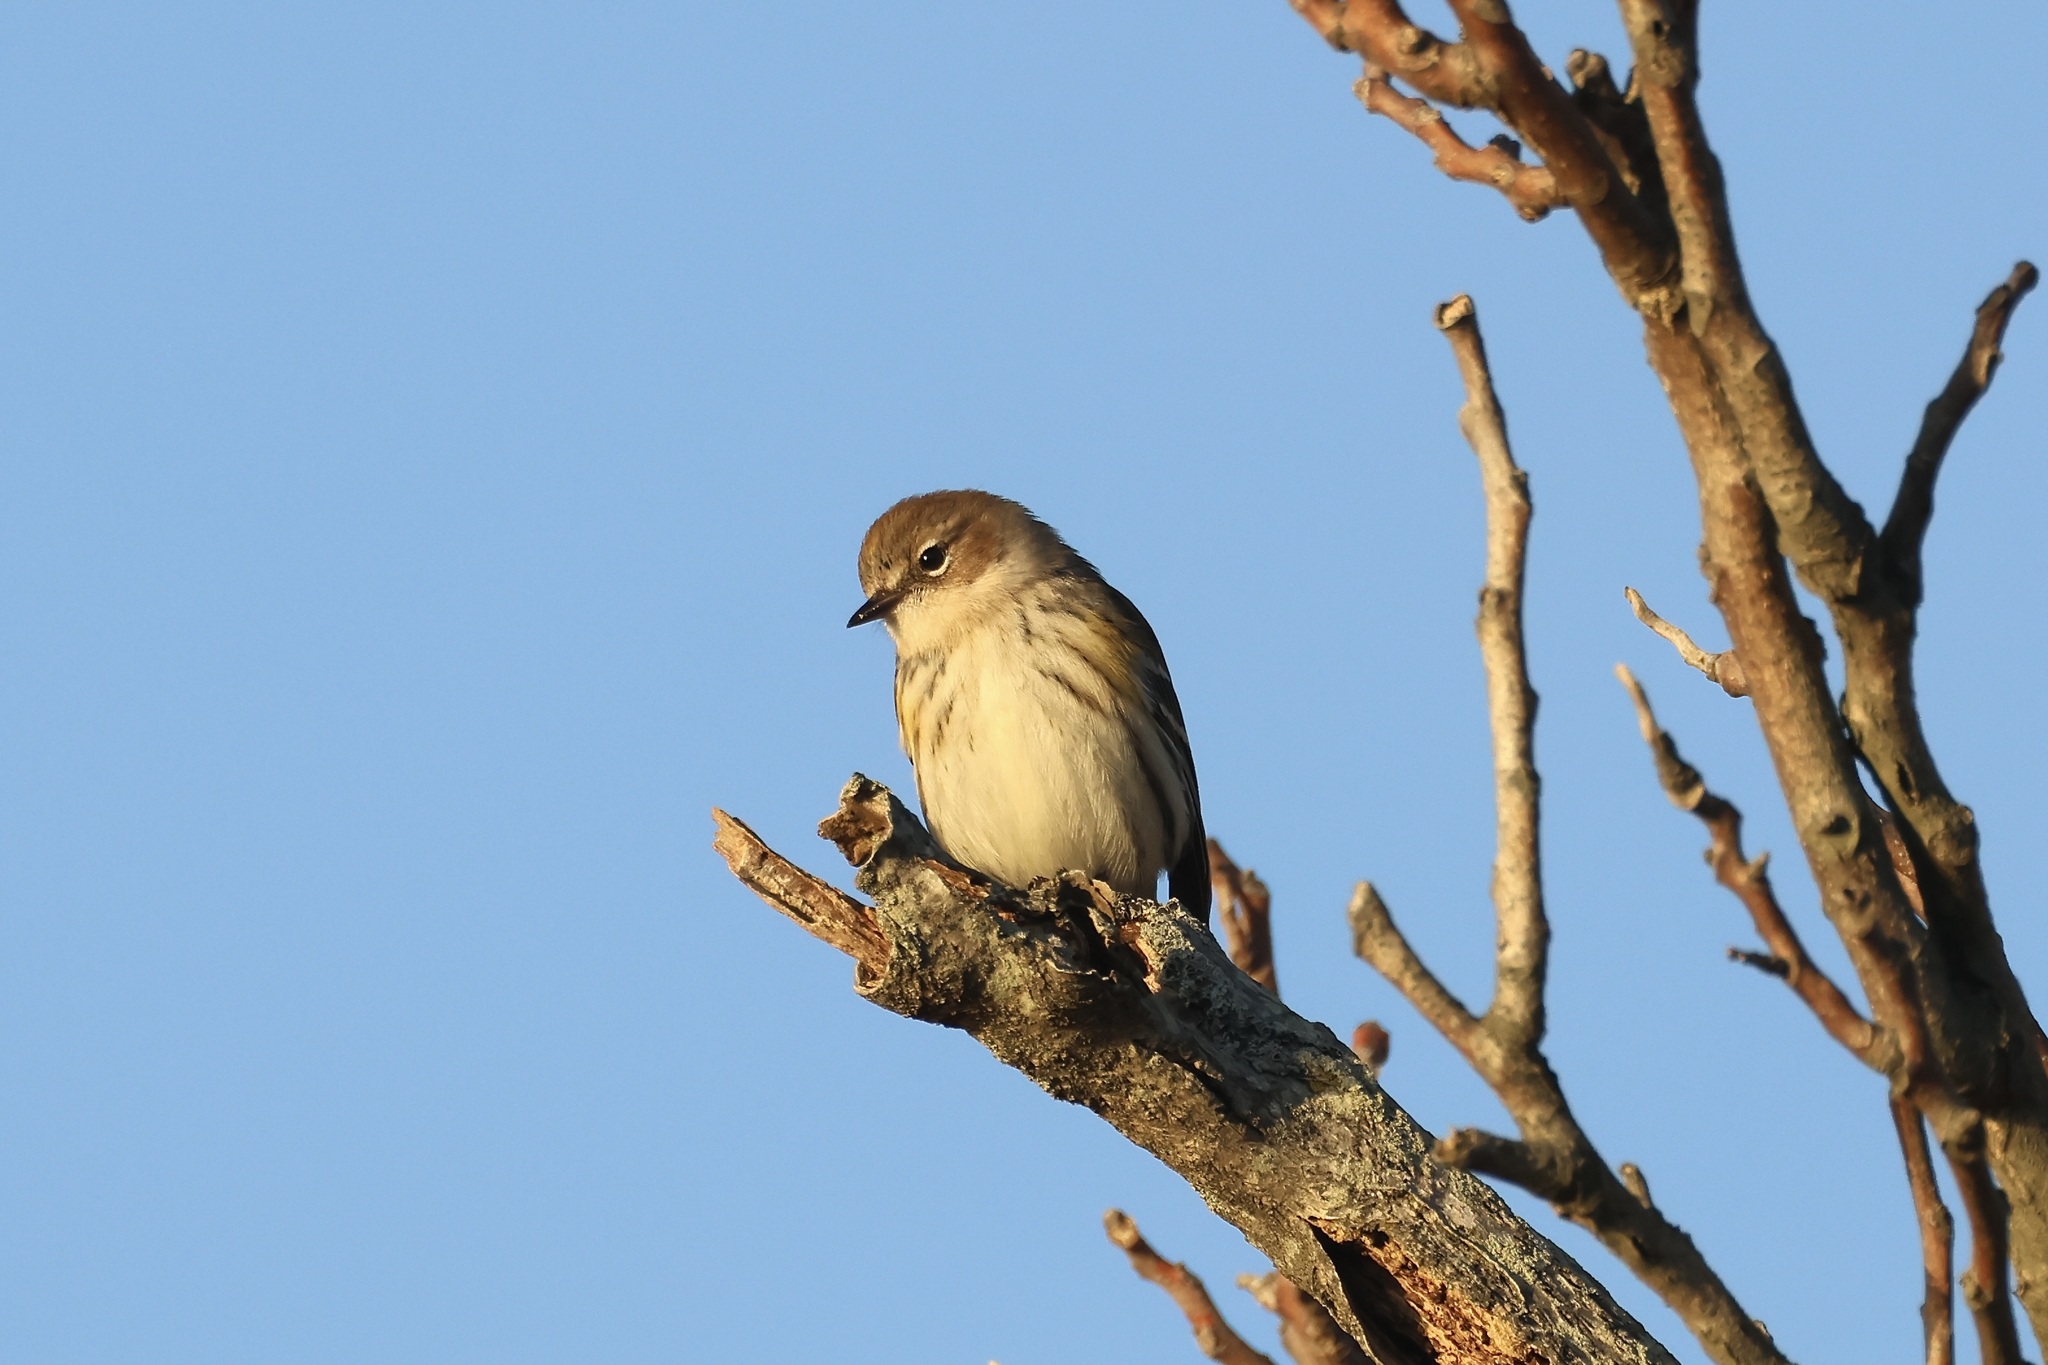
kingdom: Animalia
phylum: Chordata
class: Aves
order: Passeriformes
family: Parulidae
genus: Setophaga
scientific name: Setophaga coronata
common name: Myrtle warbler
